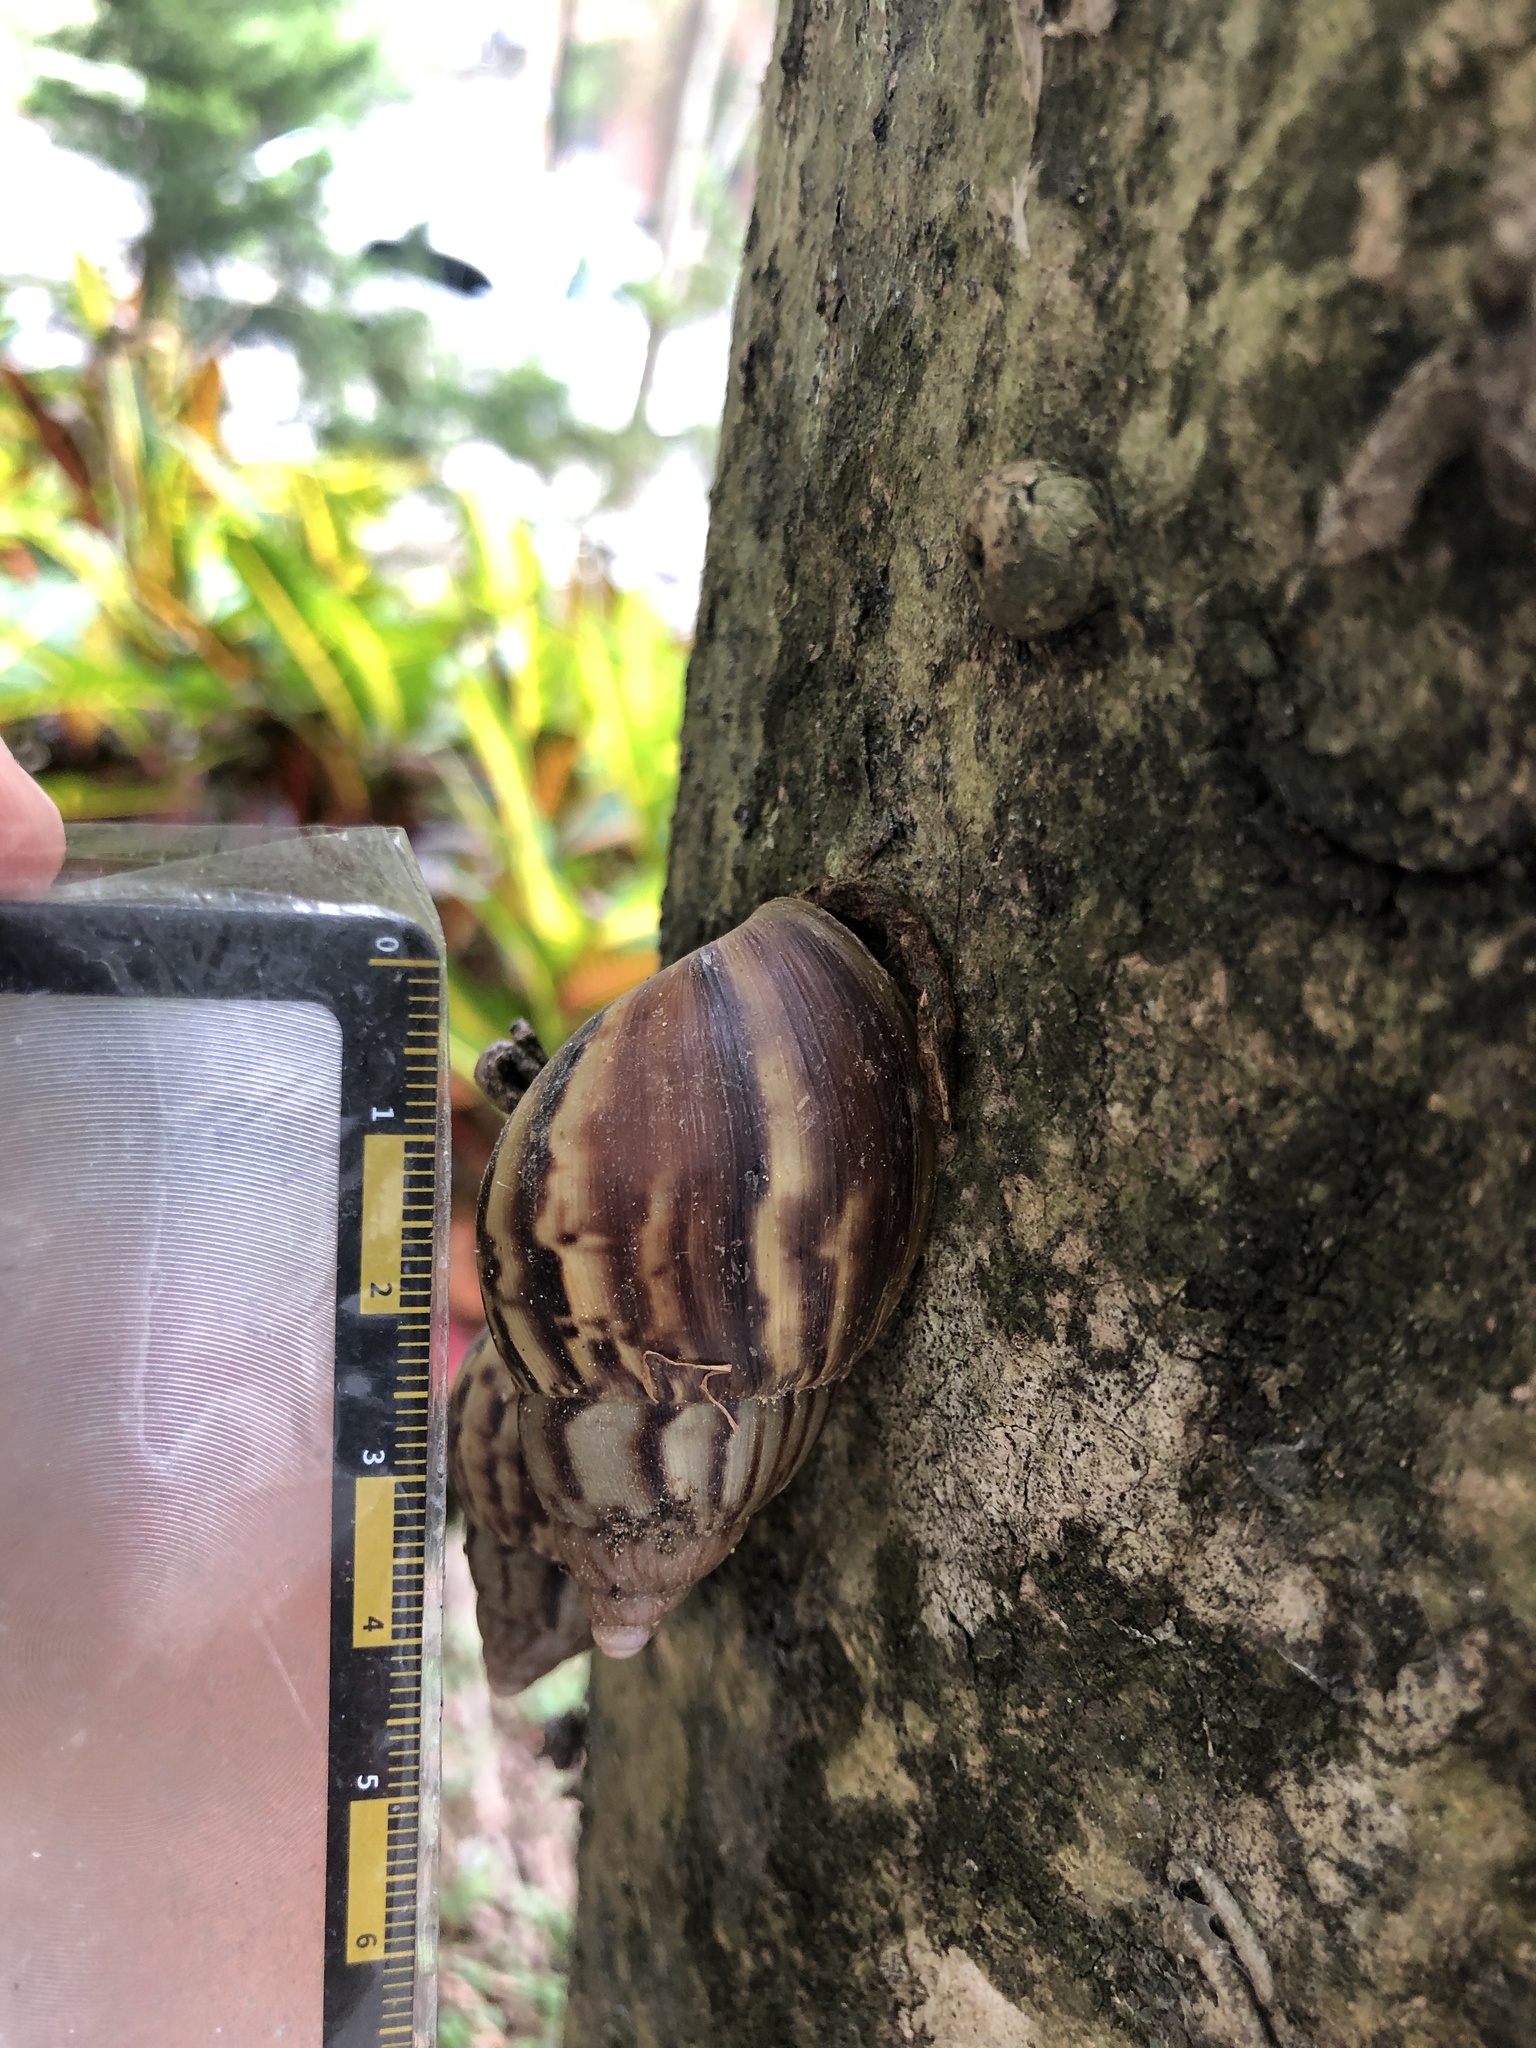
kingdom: Animalia
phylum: Mollusca
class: Gastropoda
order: Stylommatophora
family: Achatinidae
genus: Lissachatina
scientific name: Lissachatina fulica
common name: Giant african snail
